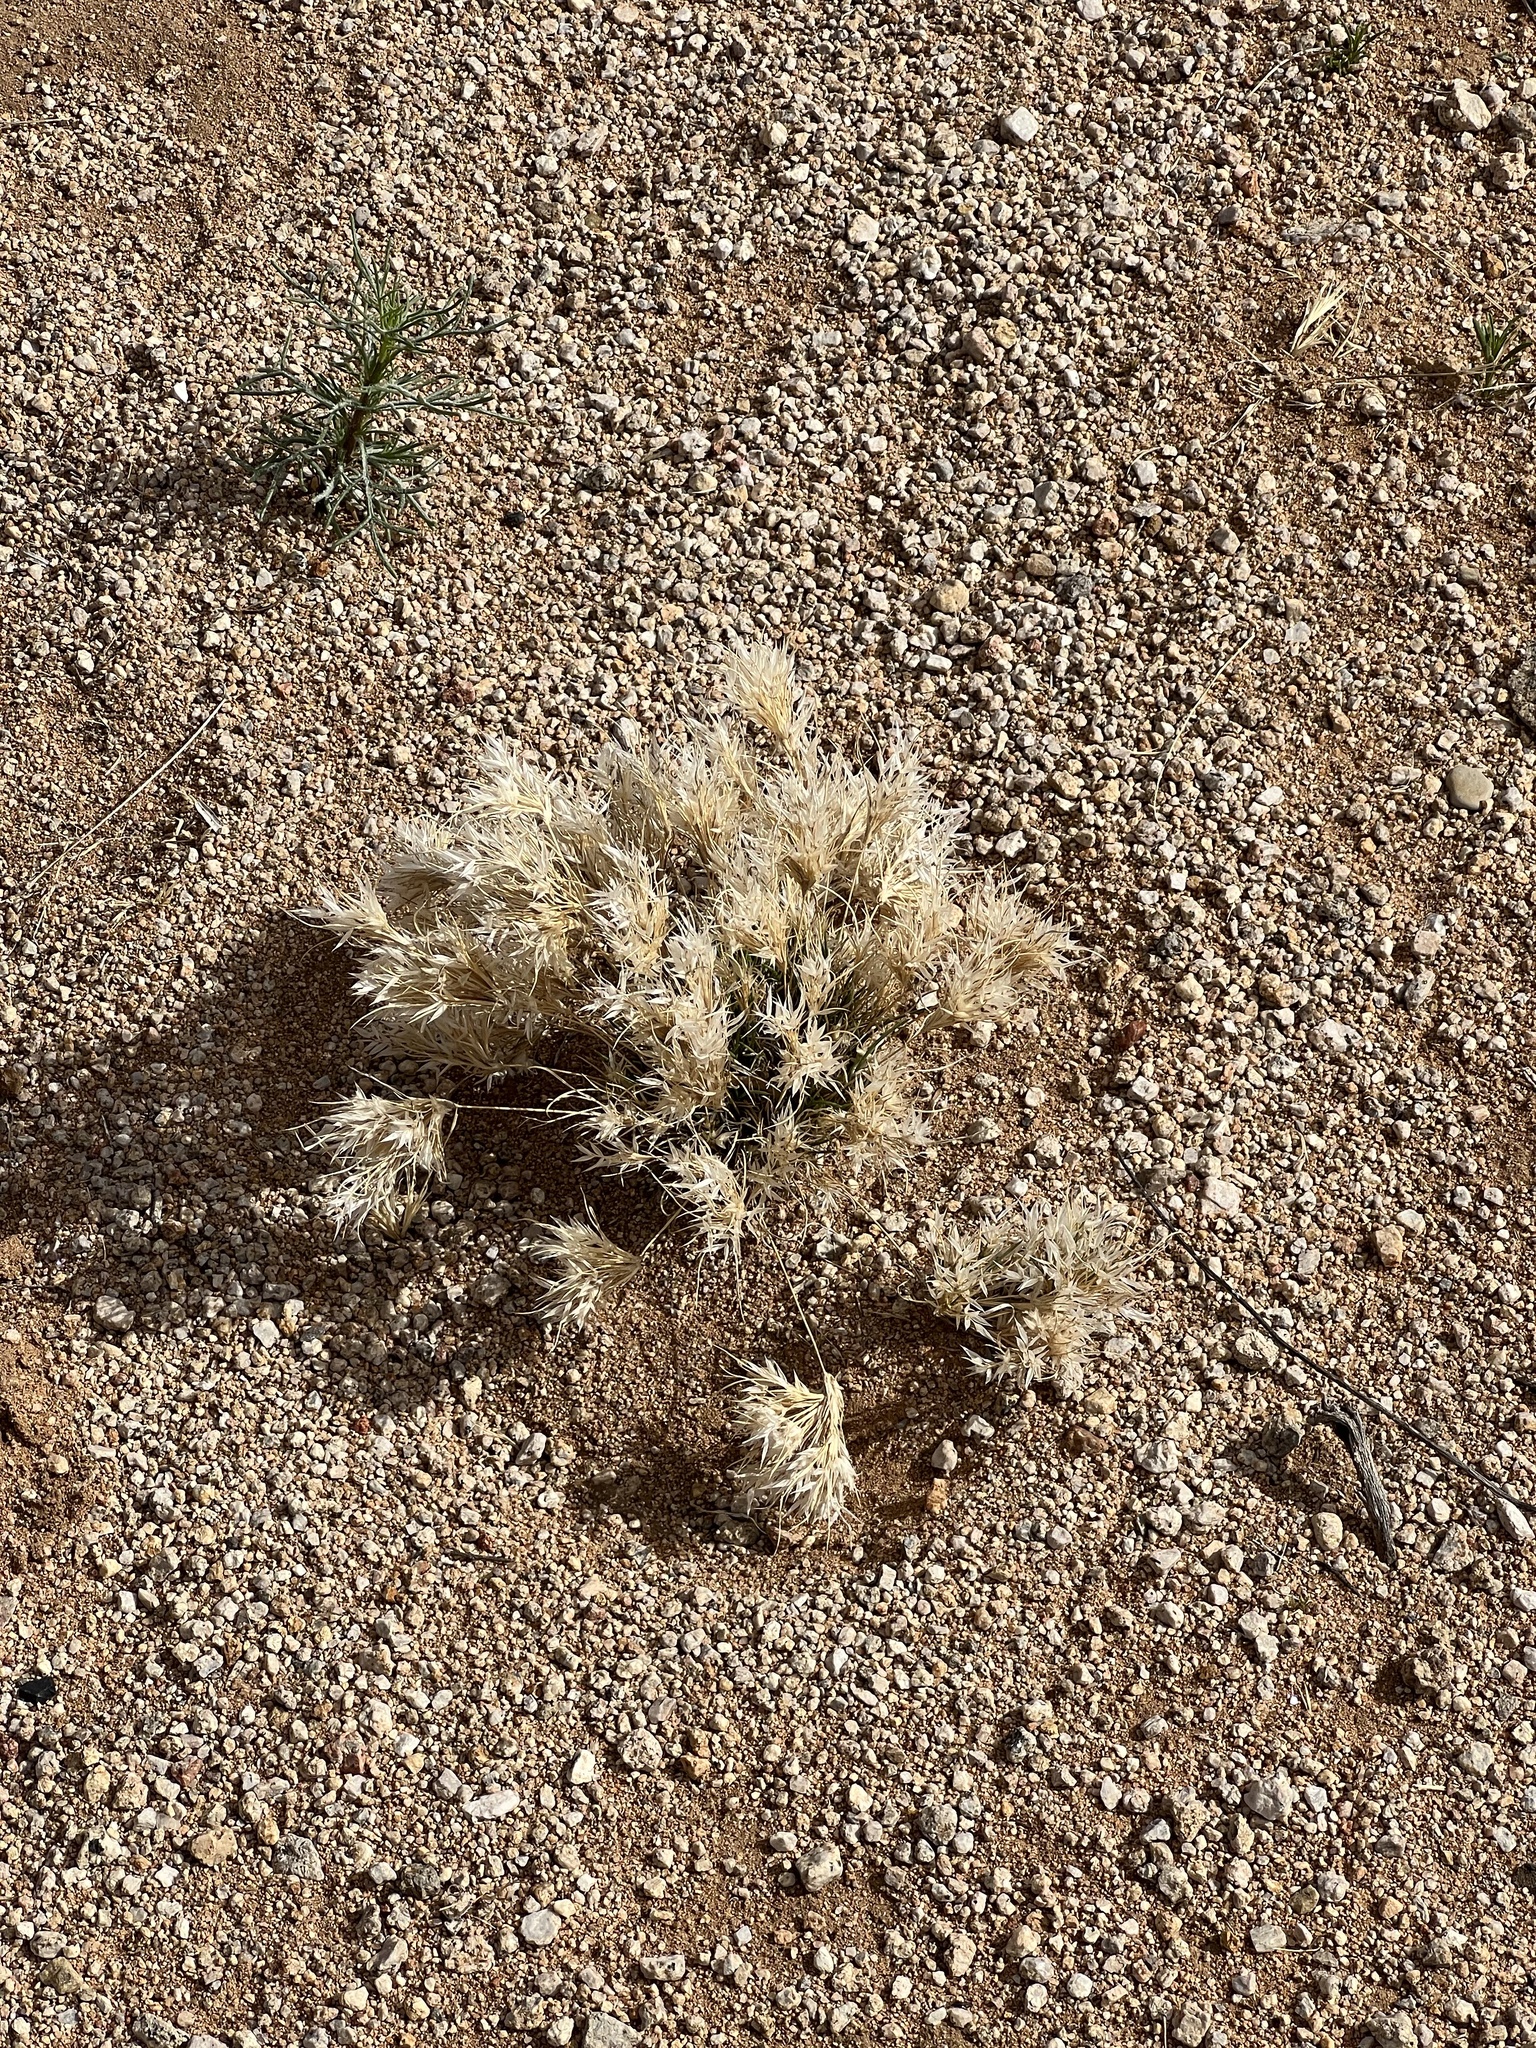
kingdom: Plantae
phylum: Tracheophyta
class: Liliopsida
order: Poales
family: Poaceae
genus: Dasyochloa
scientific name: Dasyochloa pulchella
